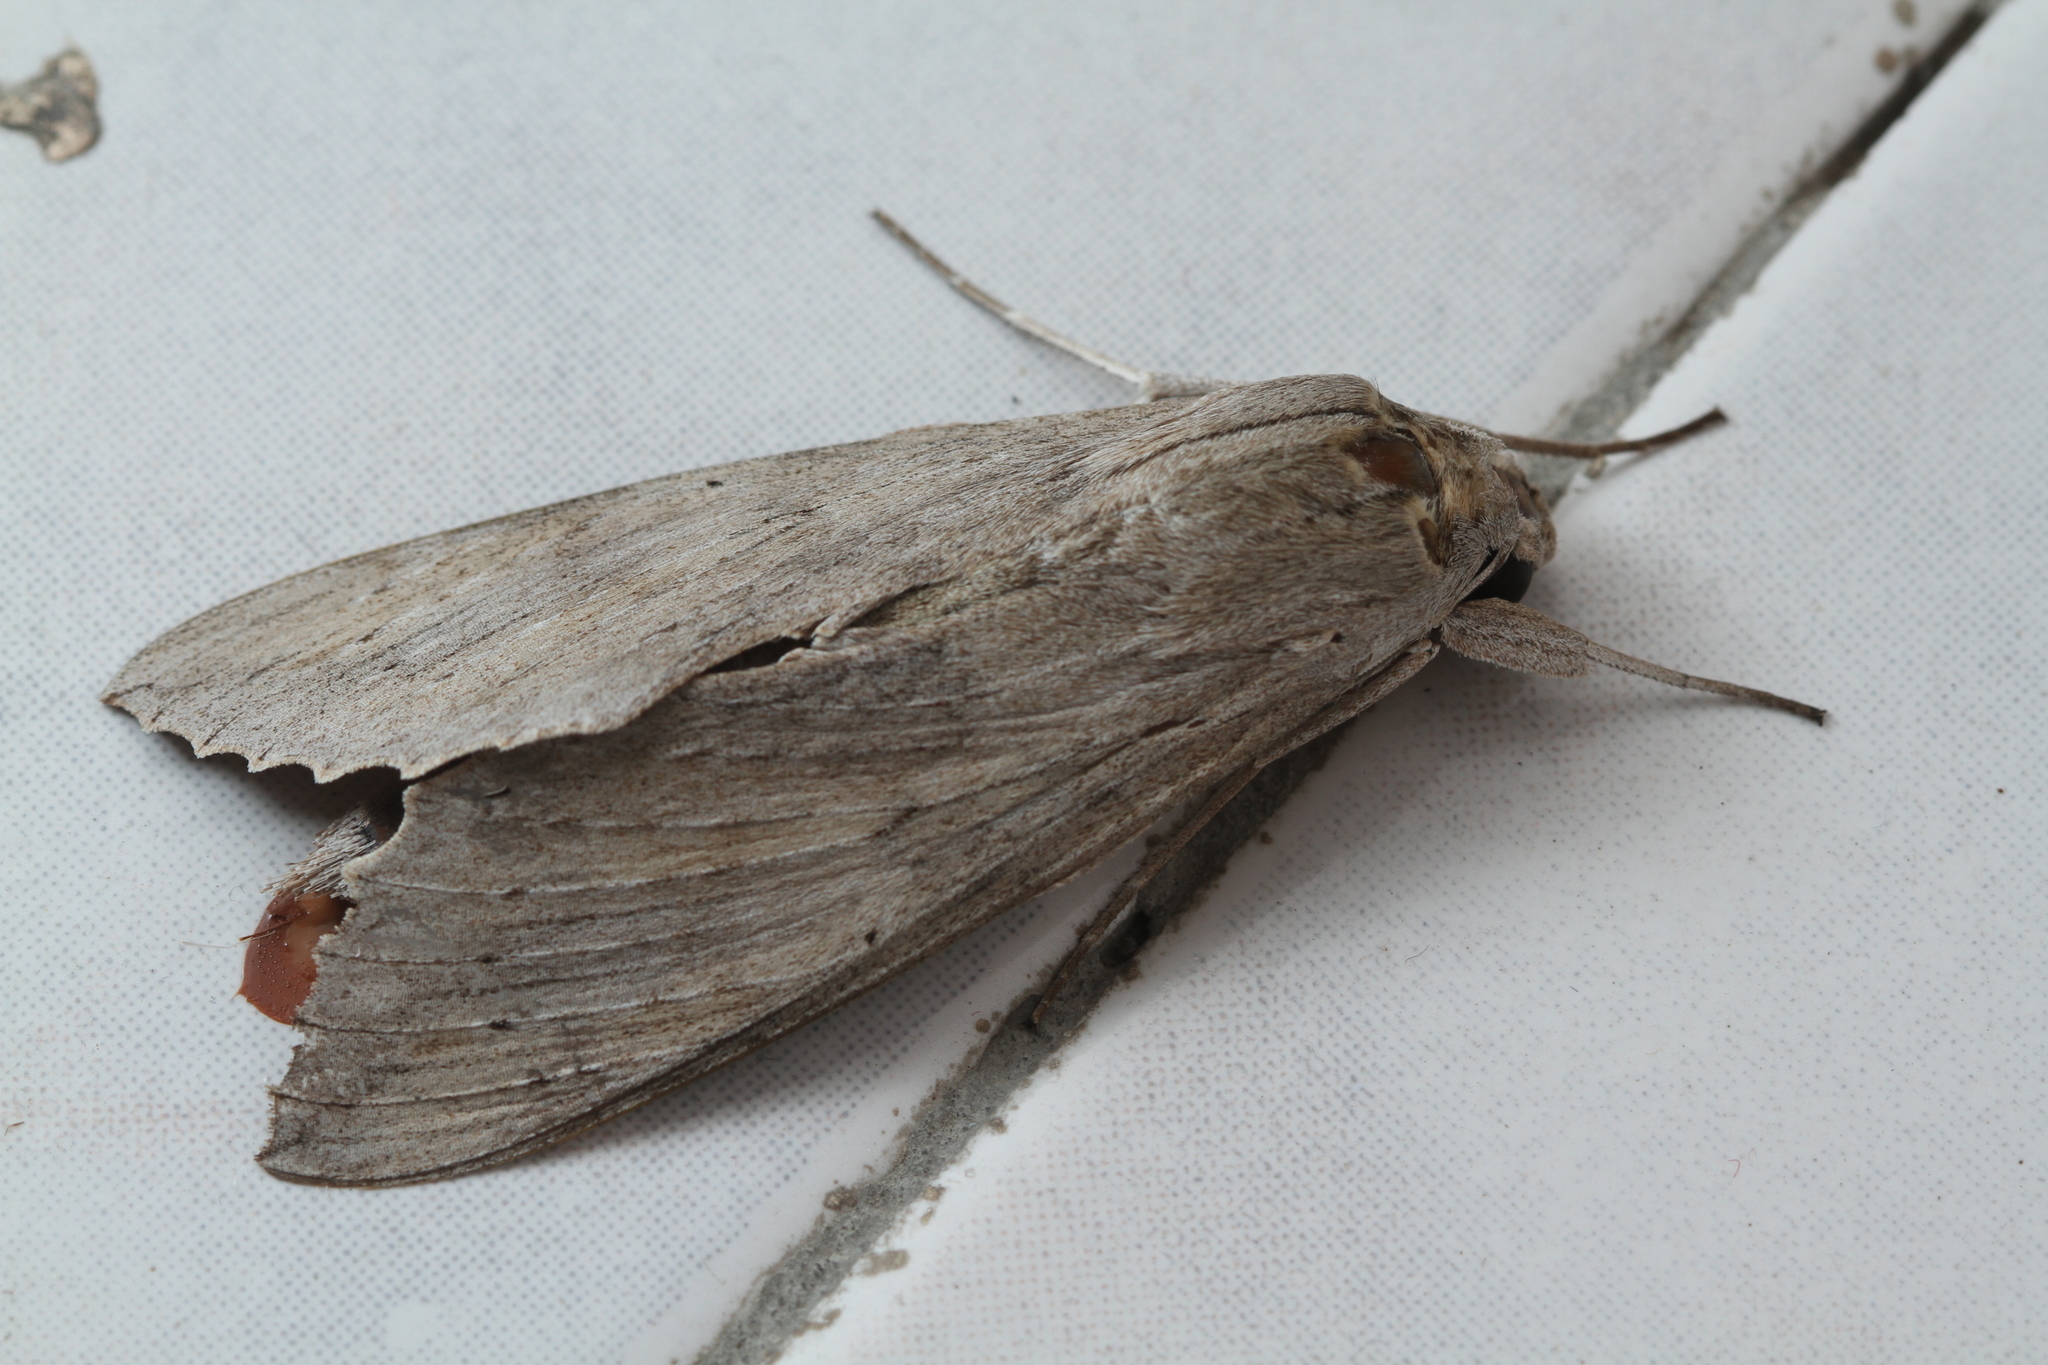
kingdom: Animalia
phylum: Arthropoda
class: Insecta
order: Lepidoptera
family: Sphingidae
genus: Erinnyis
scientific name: Erinnyis ello
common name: Ello sphinx
